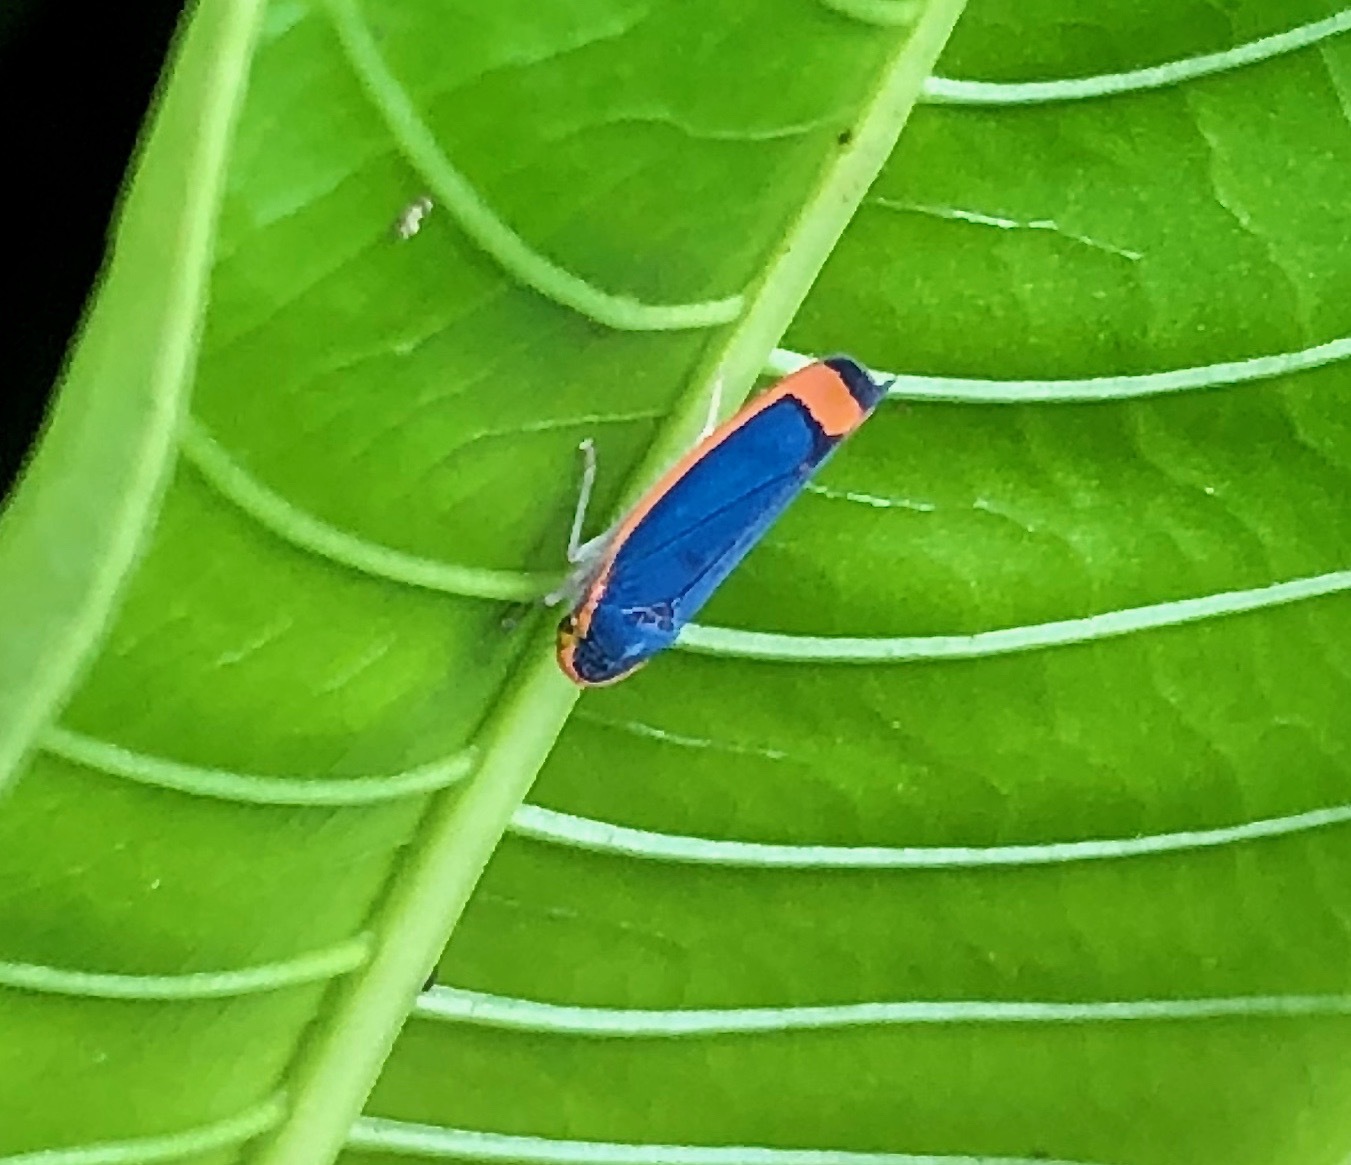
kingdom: Animalia
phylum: Arthropoda
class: Insecta
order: Hemiptera
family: Cicadellidae
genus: Stephanolla
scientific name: Stephanolla rufoapicata
